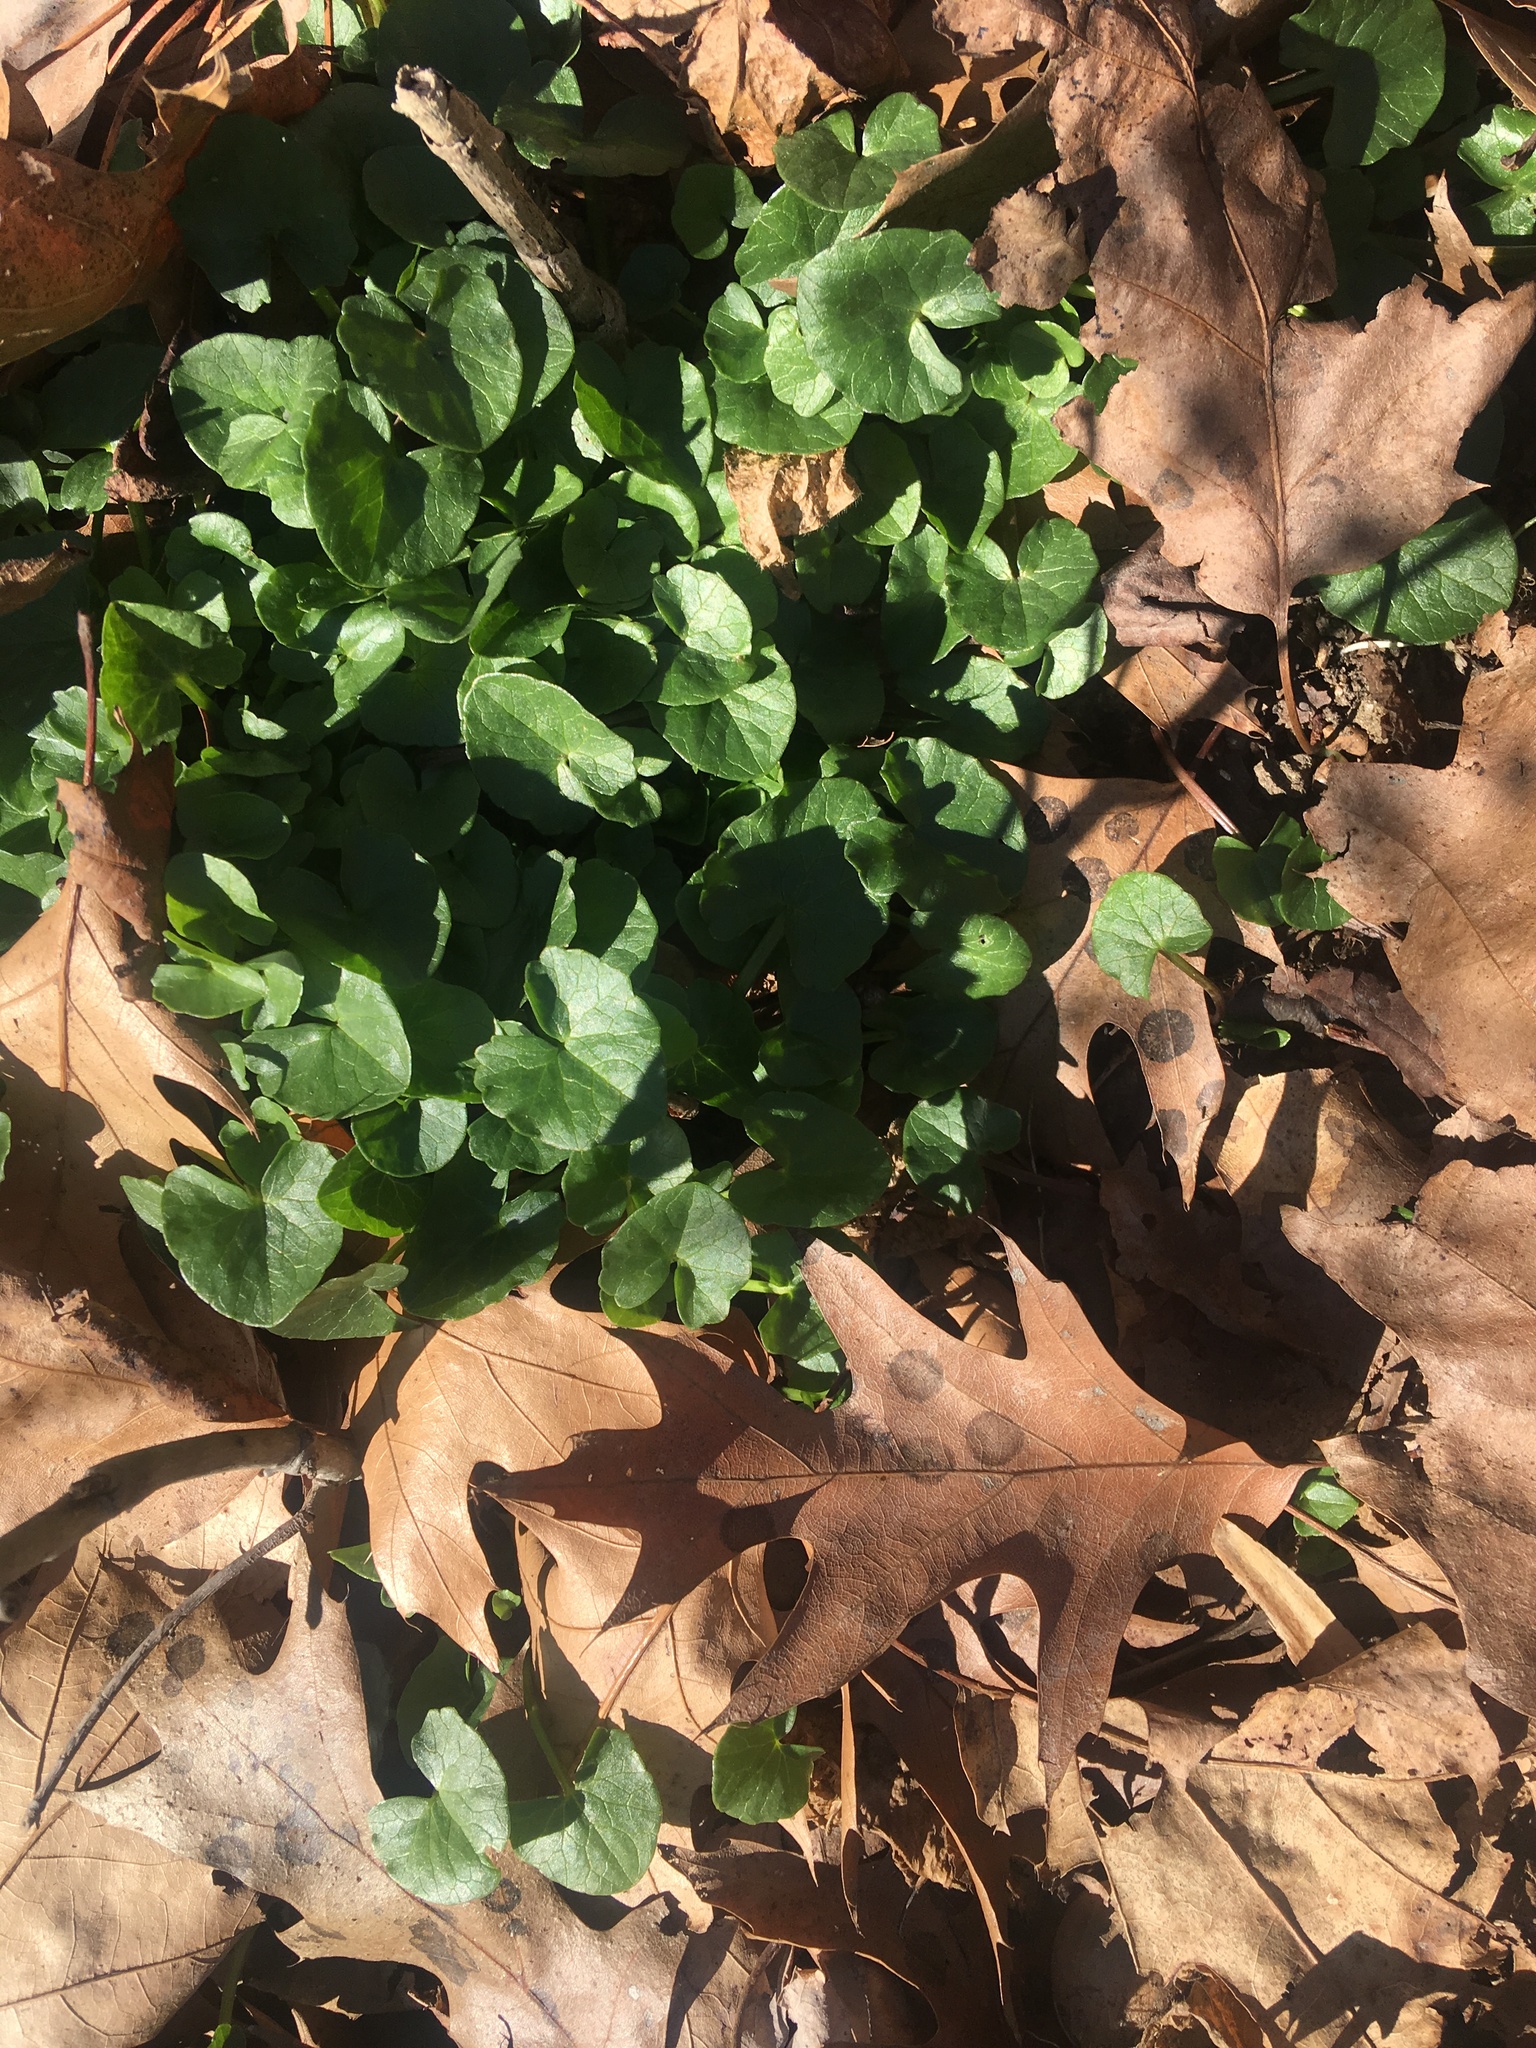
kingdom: Plantae
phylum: Tracheophyta
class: Magnoliopsida
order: Ranunculales
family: Ranunculaceae
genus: Ficaria
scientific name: Ficaria verna
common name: Lesser celandine
